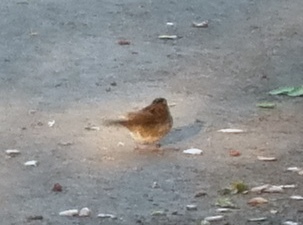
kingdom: Animalia
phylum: Chordata
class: Aves
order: Passeriformes
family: Passerellidae
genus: Zonotrichia
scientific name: Zonotrichia albicollis
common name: White-throated sparrow
